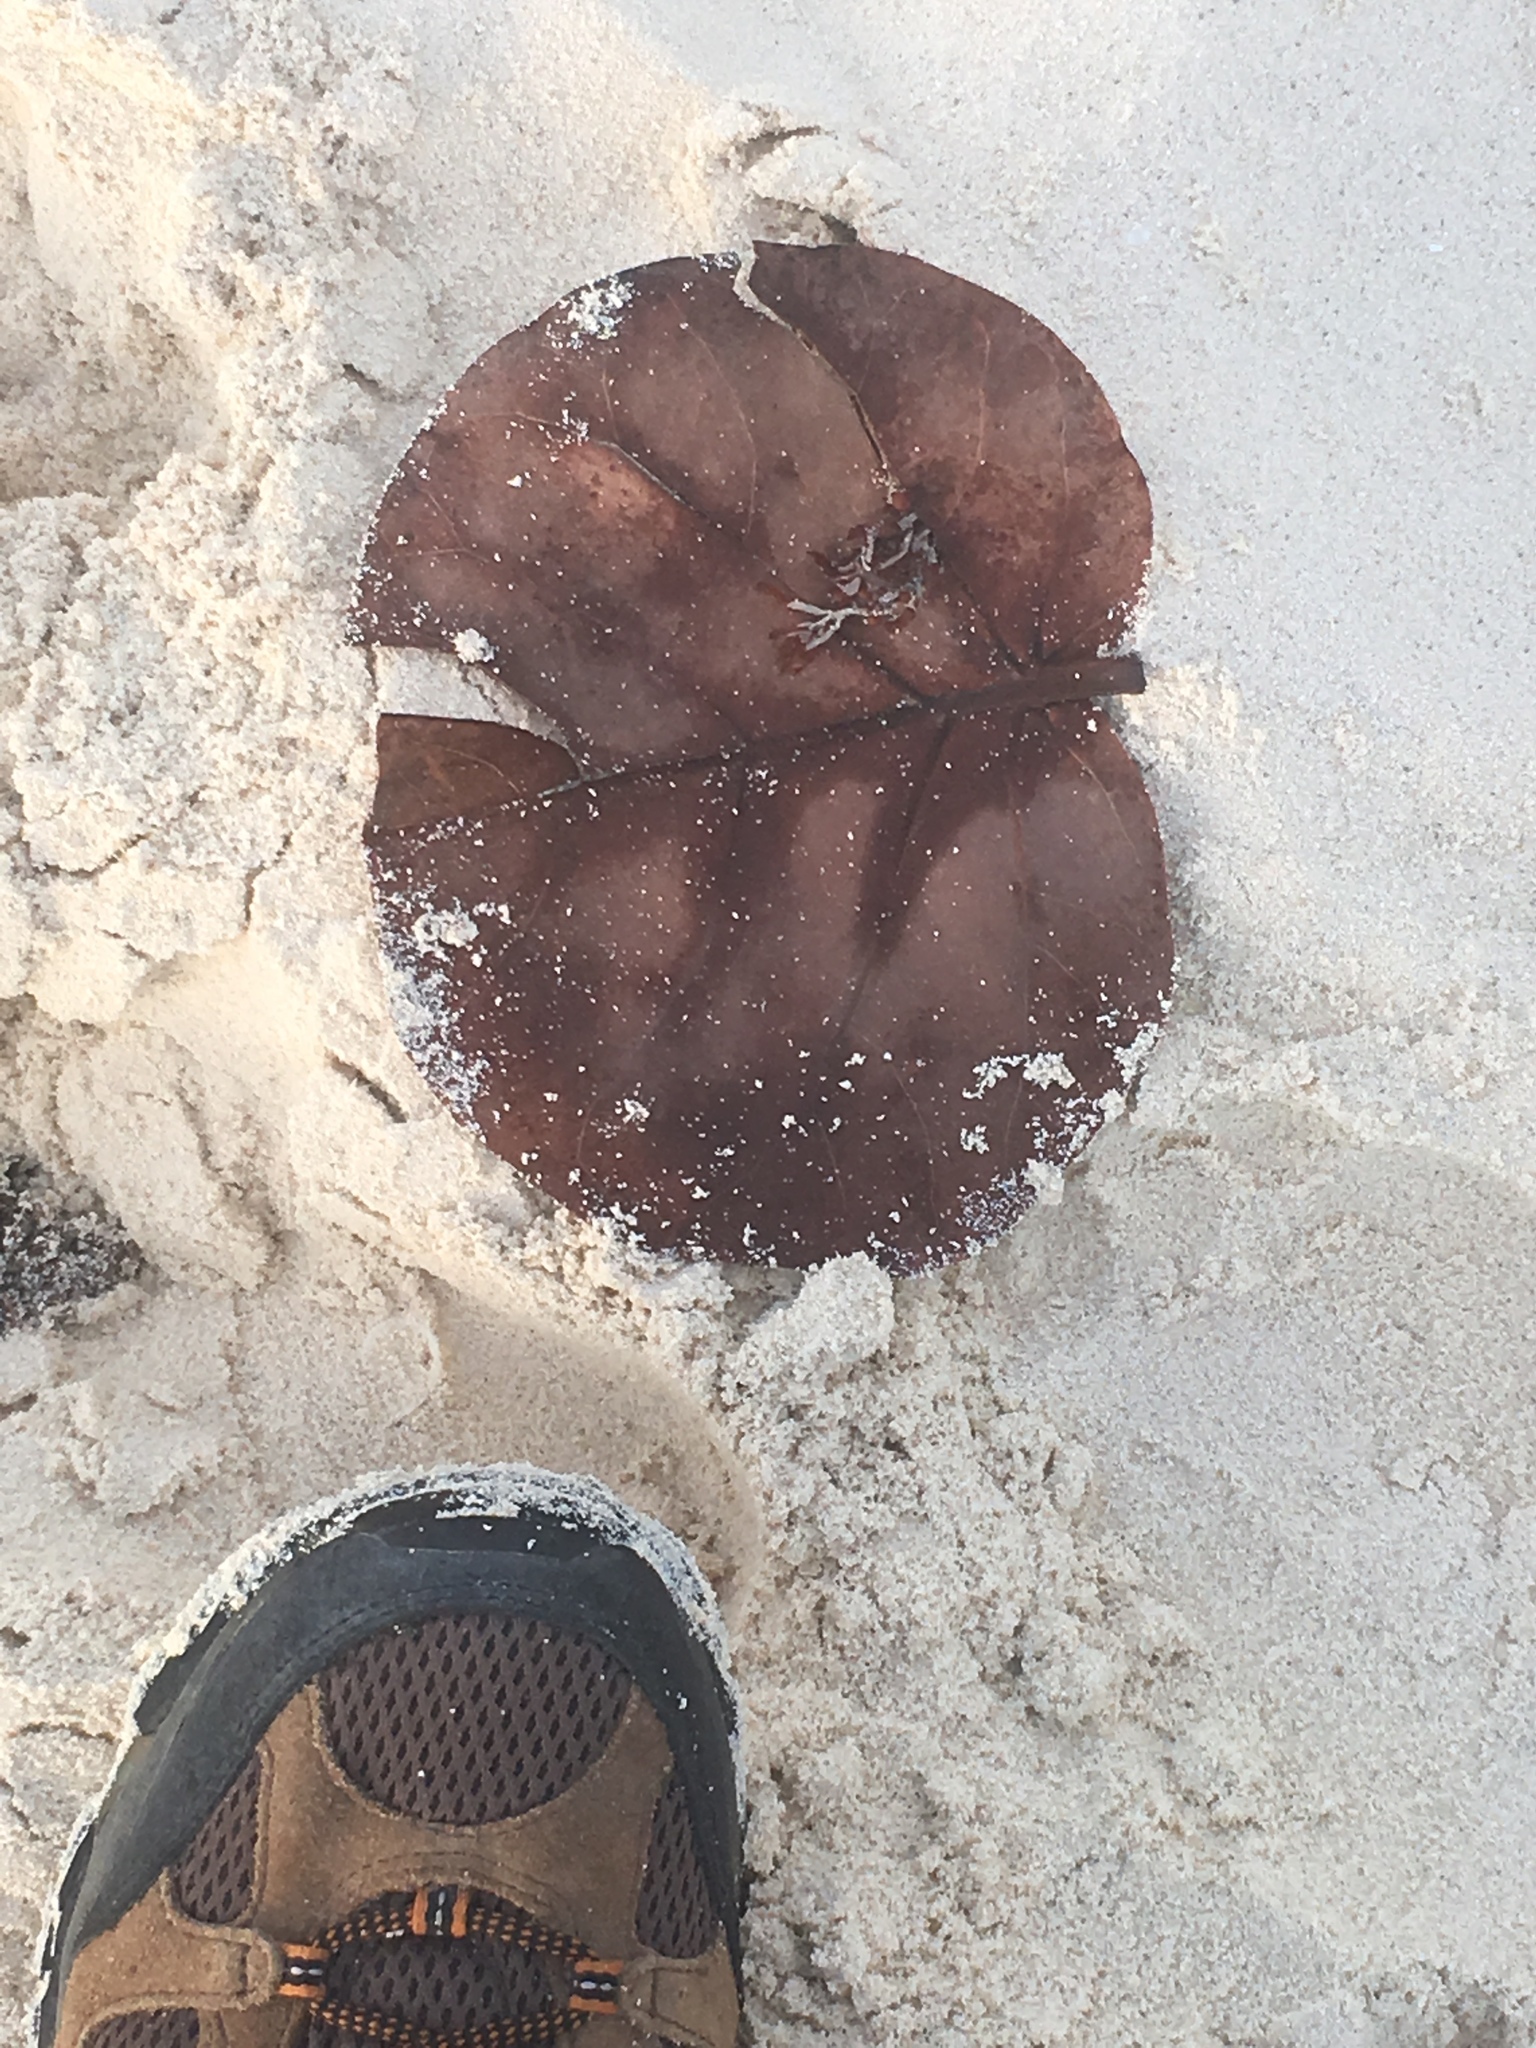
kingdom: Plantae
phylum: Tracheophyta
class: Magnoliopsida
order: Caryophyllales
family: Polygonaceae
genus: Coccoloba
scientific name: Coccoloba uvifera
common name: Seagrape
